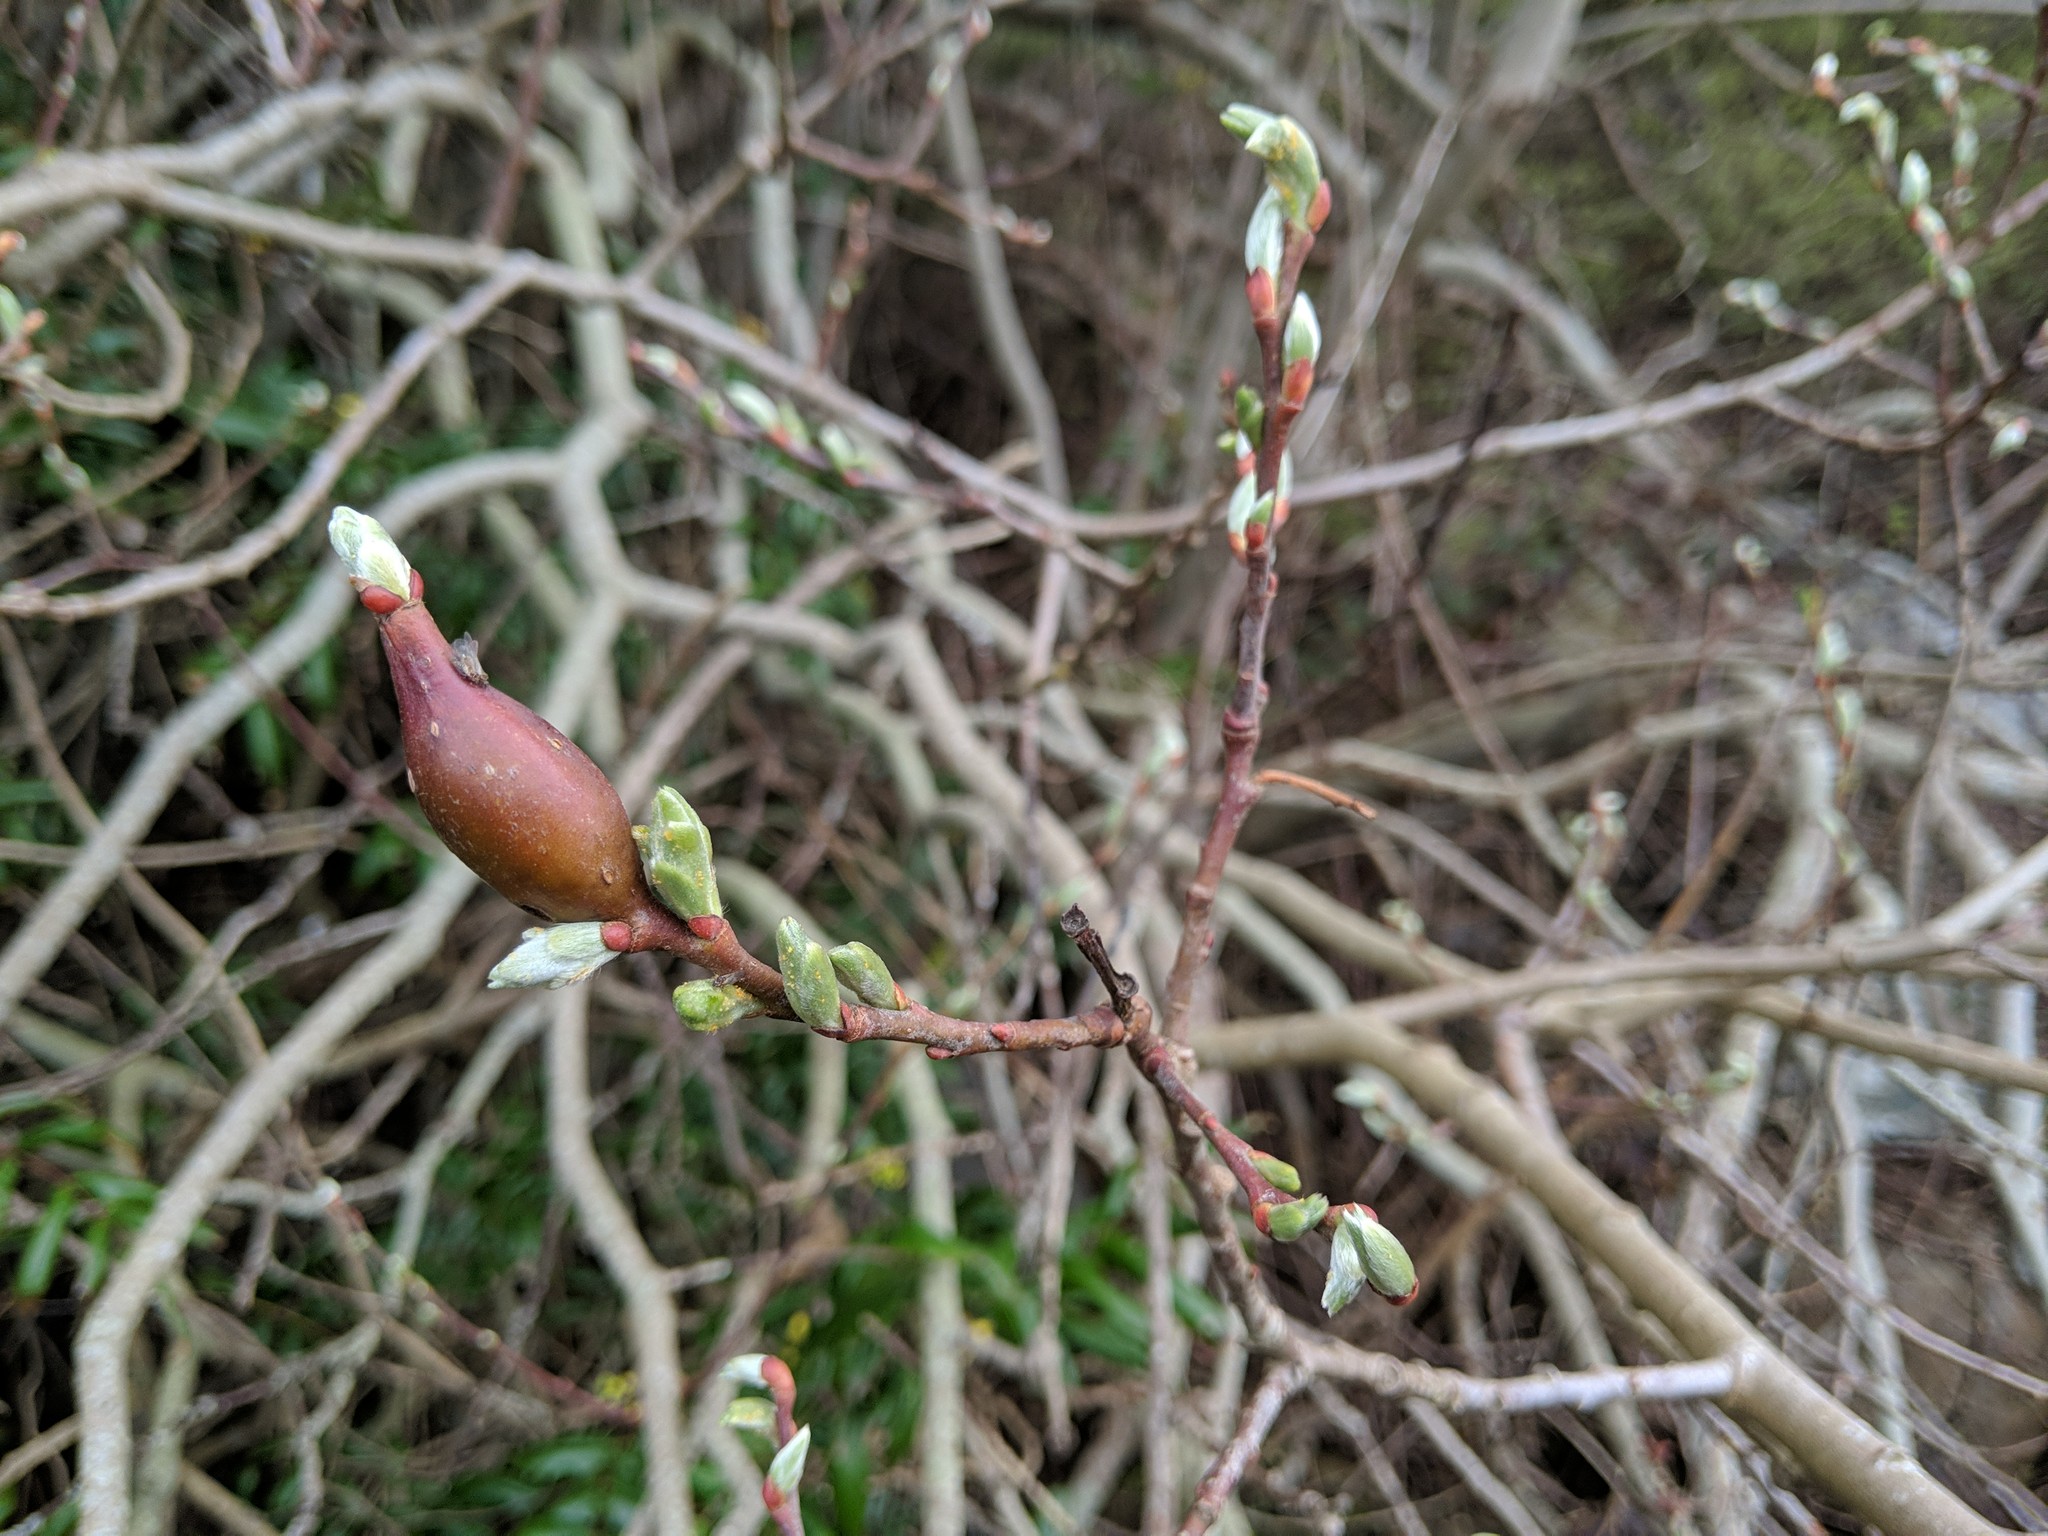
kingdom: Animalia
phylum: Arthropoda
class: Insecta
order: Diptera
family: Cecidomyiidae
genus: Thecodiplosis
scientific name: Thecodiplosis pinirigidae
